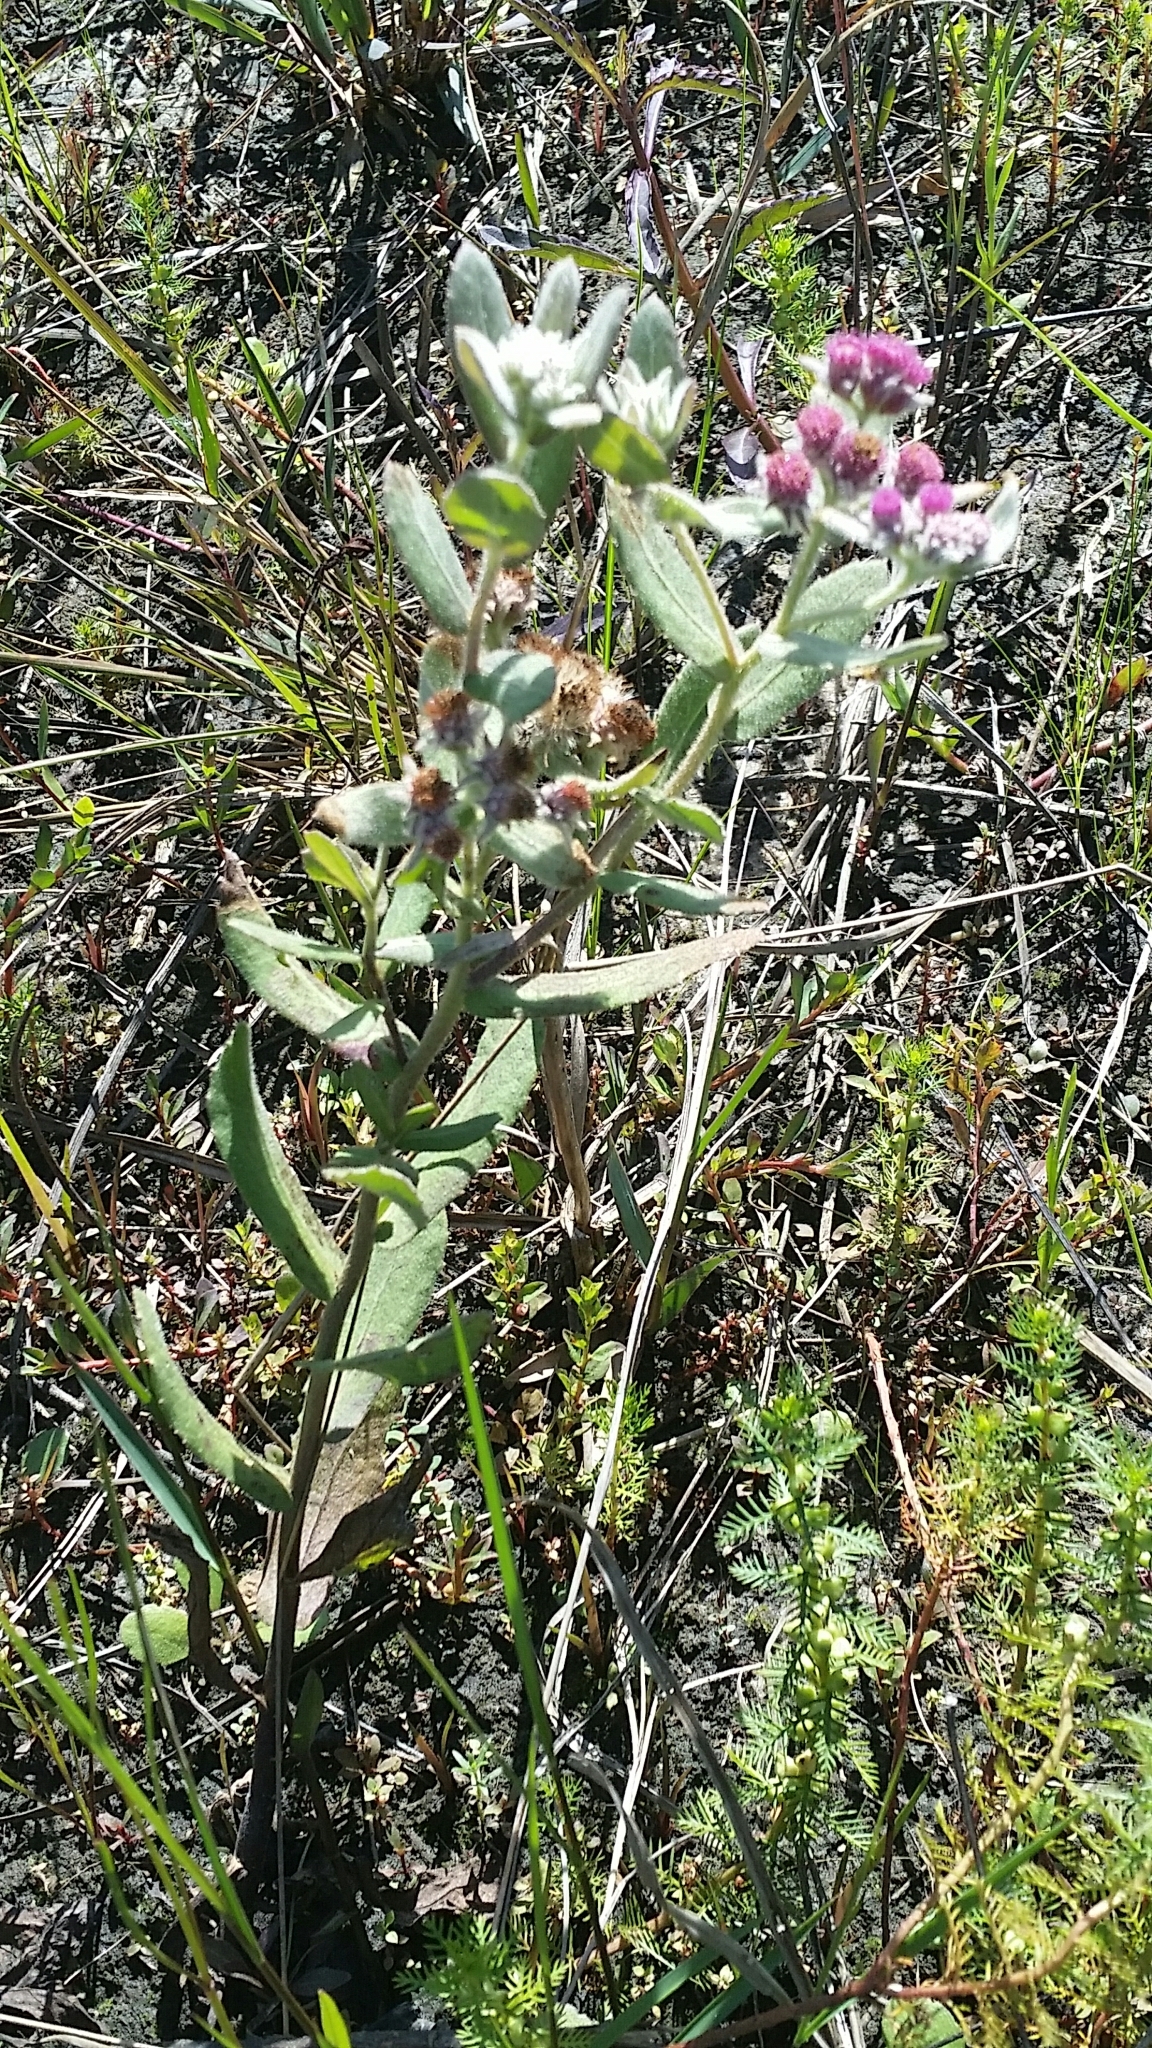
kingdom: Plantae
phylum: Tracheophyta
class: Magnoliopsida
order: Asterales
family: Asteraceae
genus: Pluchea
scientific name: Pluchea baccharis
